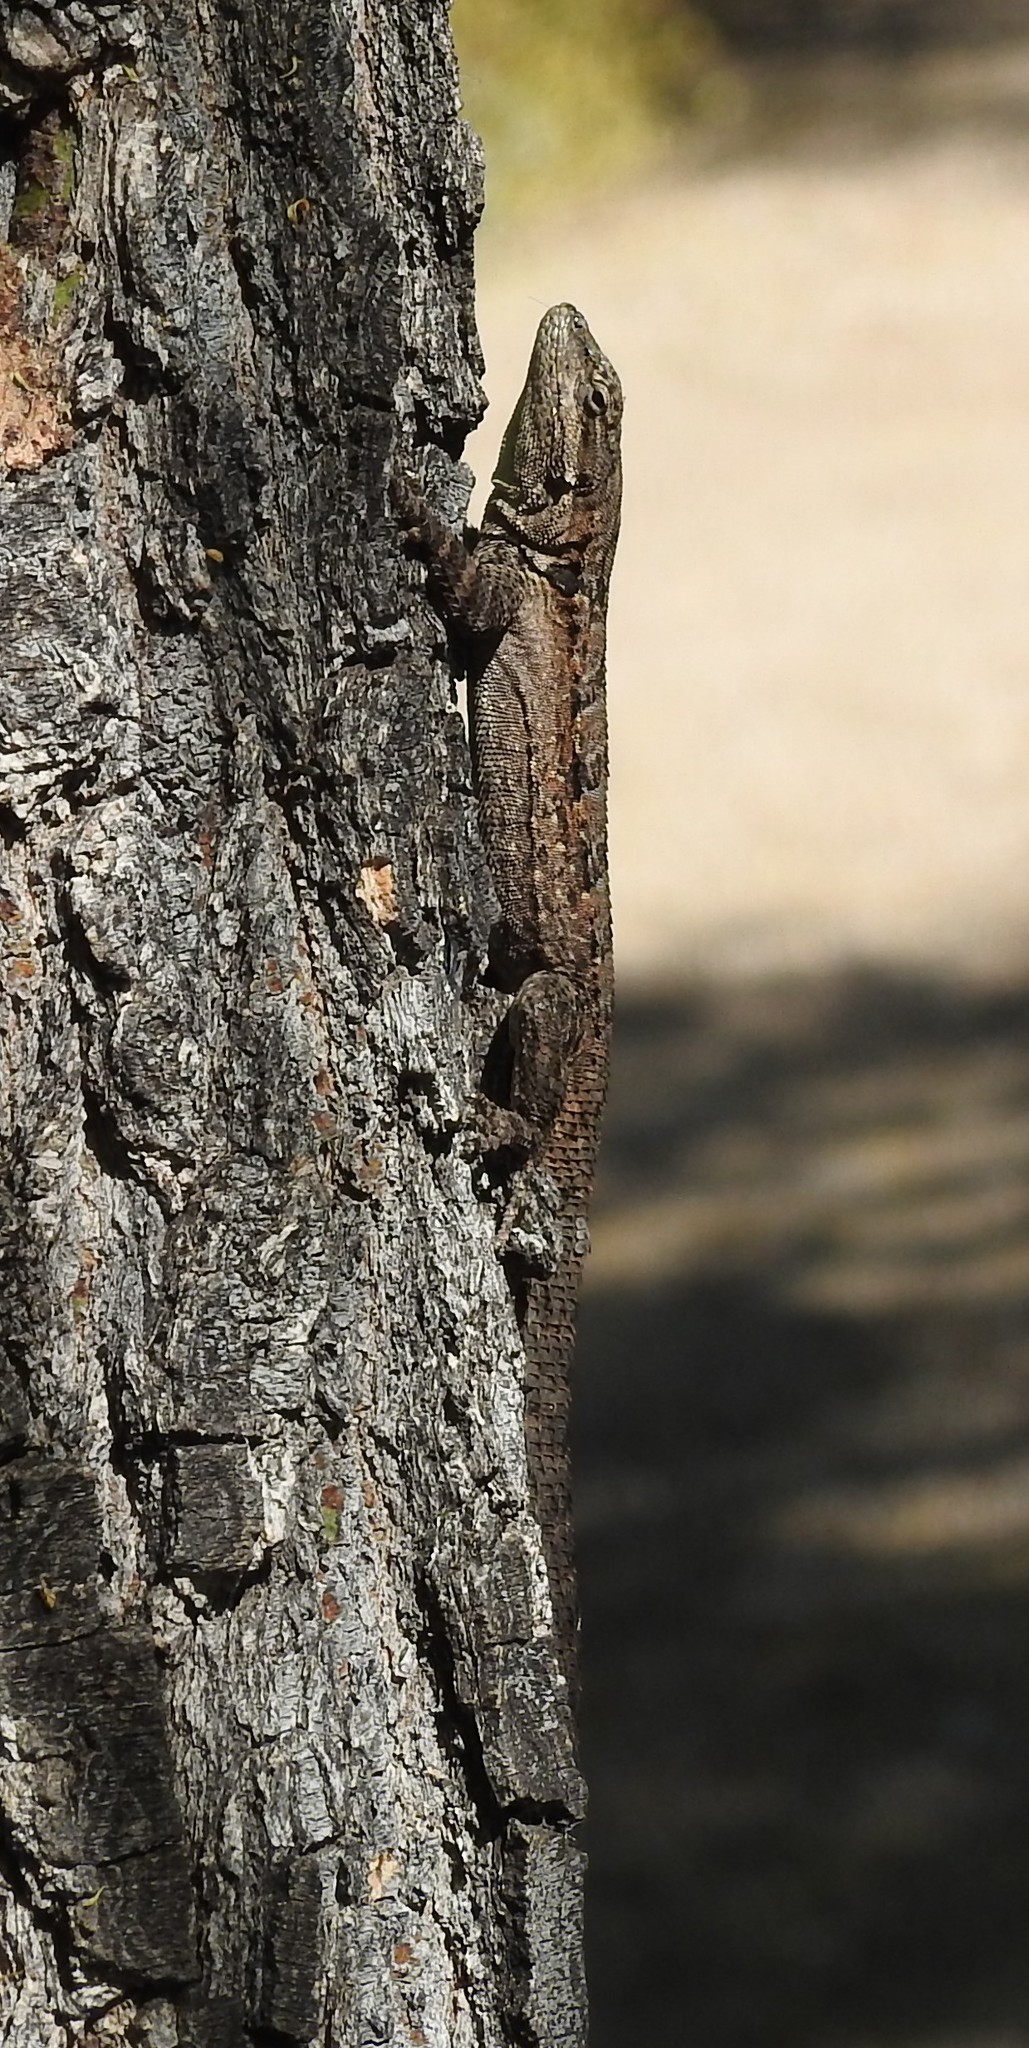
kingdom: Animalia
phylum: Chordata
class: Squamata
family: Phrynosomatidae
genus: Urosaurus
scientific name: Urosaurus ornatus
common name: Ornate tree lizard
